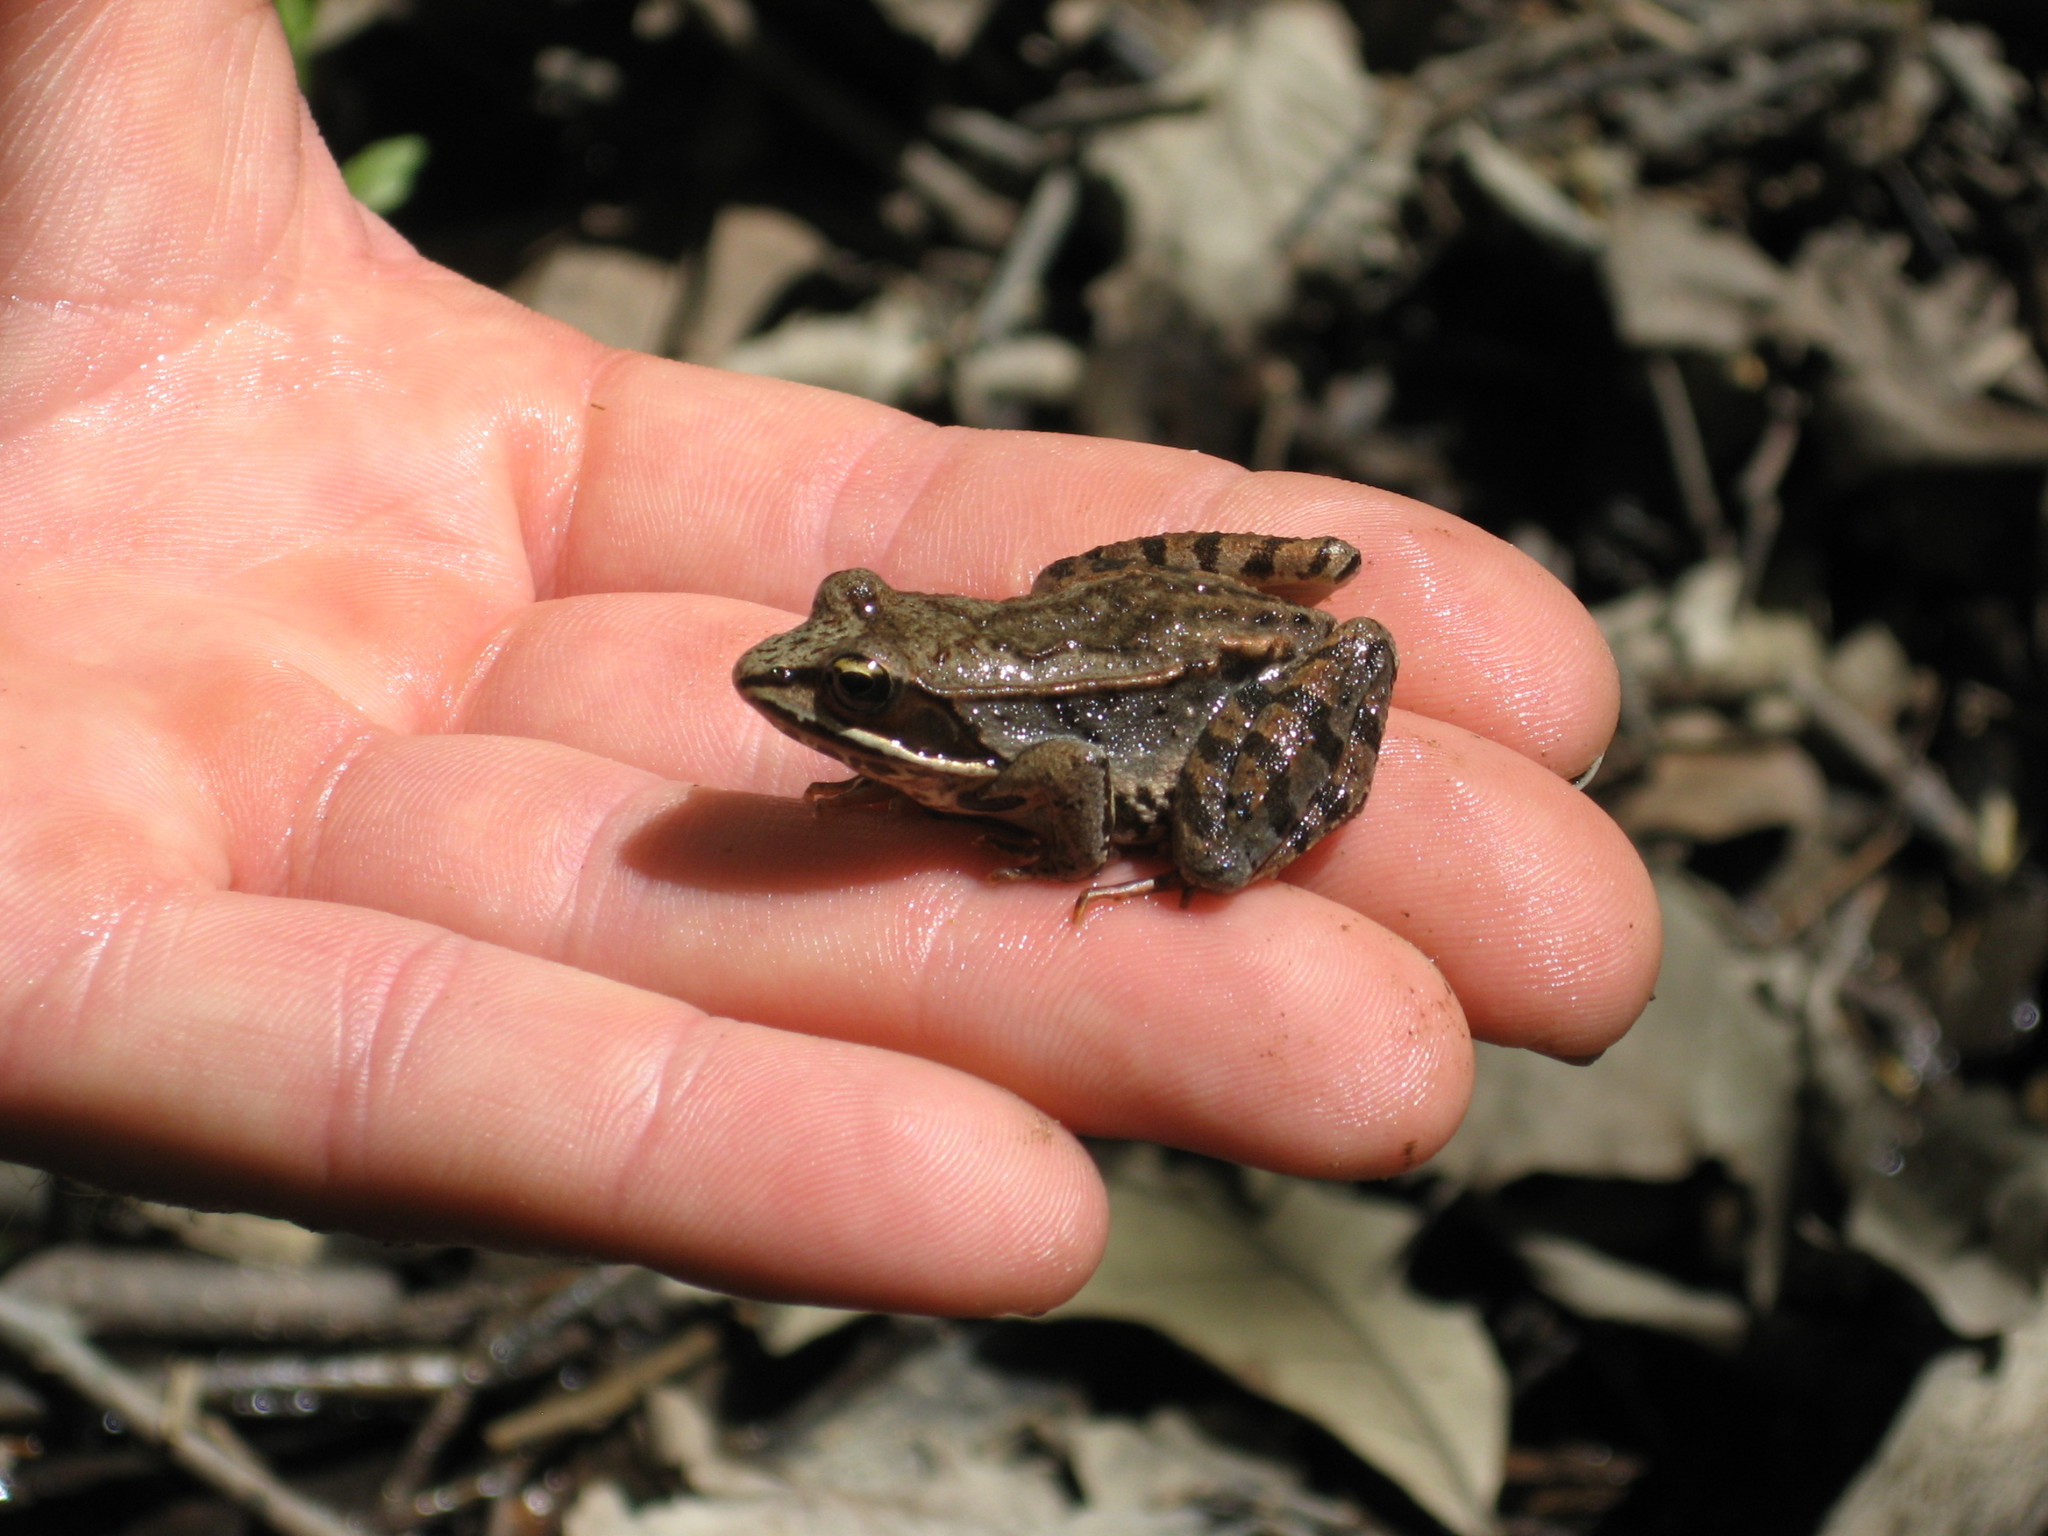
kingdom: Animalia
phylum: Chordata
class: Amphibia
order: Anura
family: Ranidae
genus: Lithobates
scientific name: Lithobates sylvaticus
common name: Wood frog
